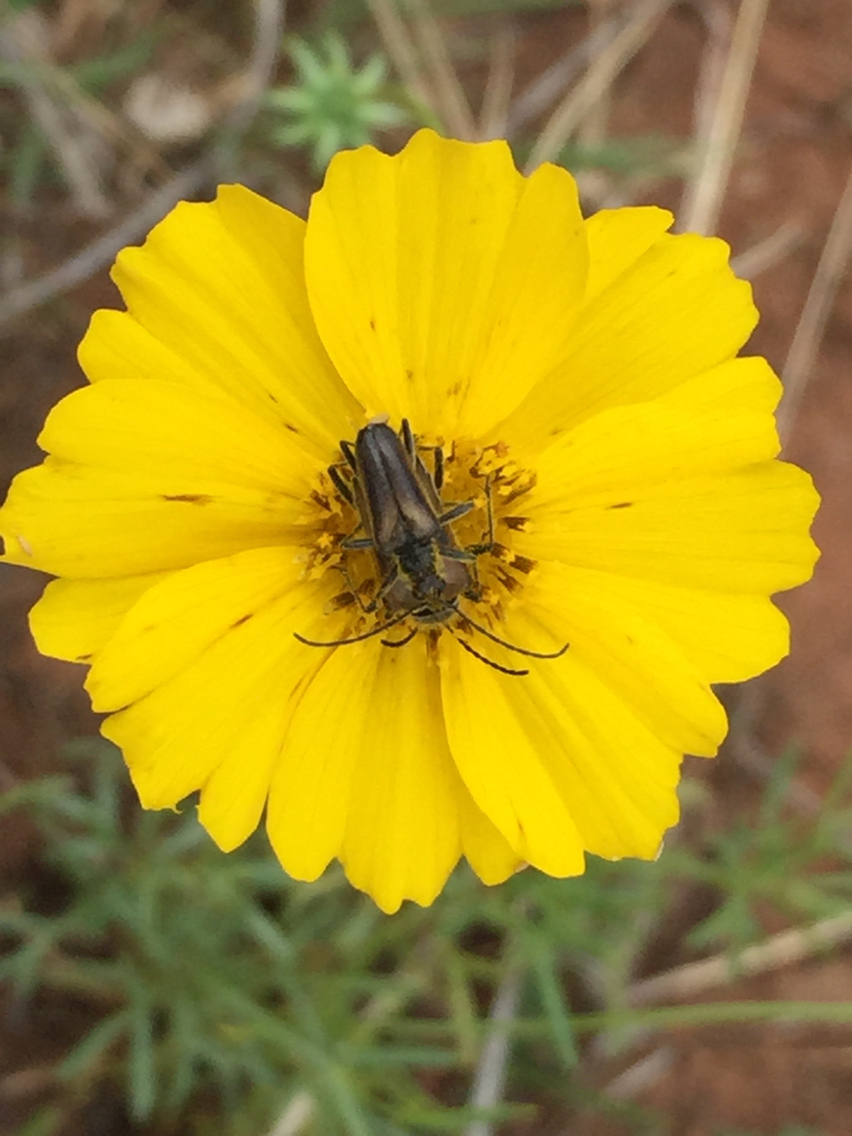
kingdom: Animalia
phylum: Arthropoda
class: Insecta
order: Coleoptera
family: Cerambycidae
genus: Acmaeops
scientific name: Acmaeops proteus
